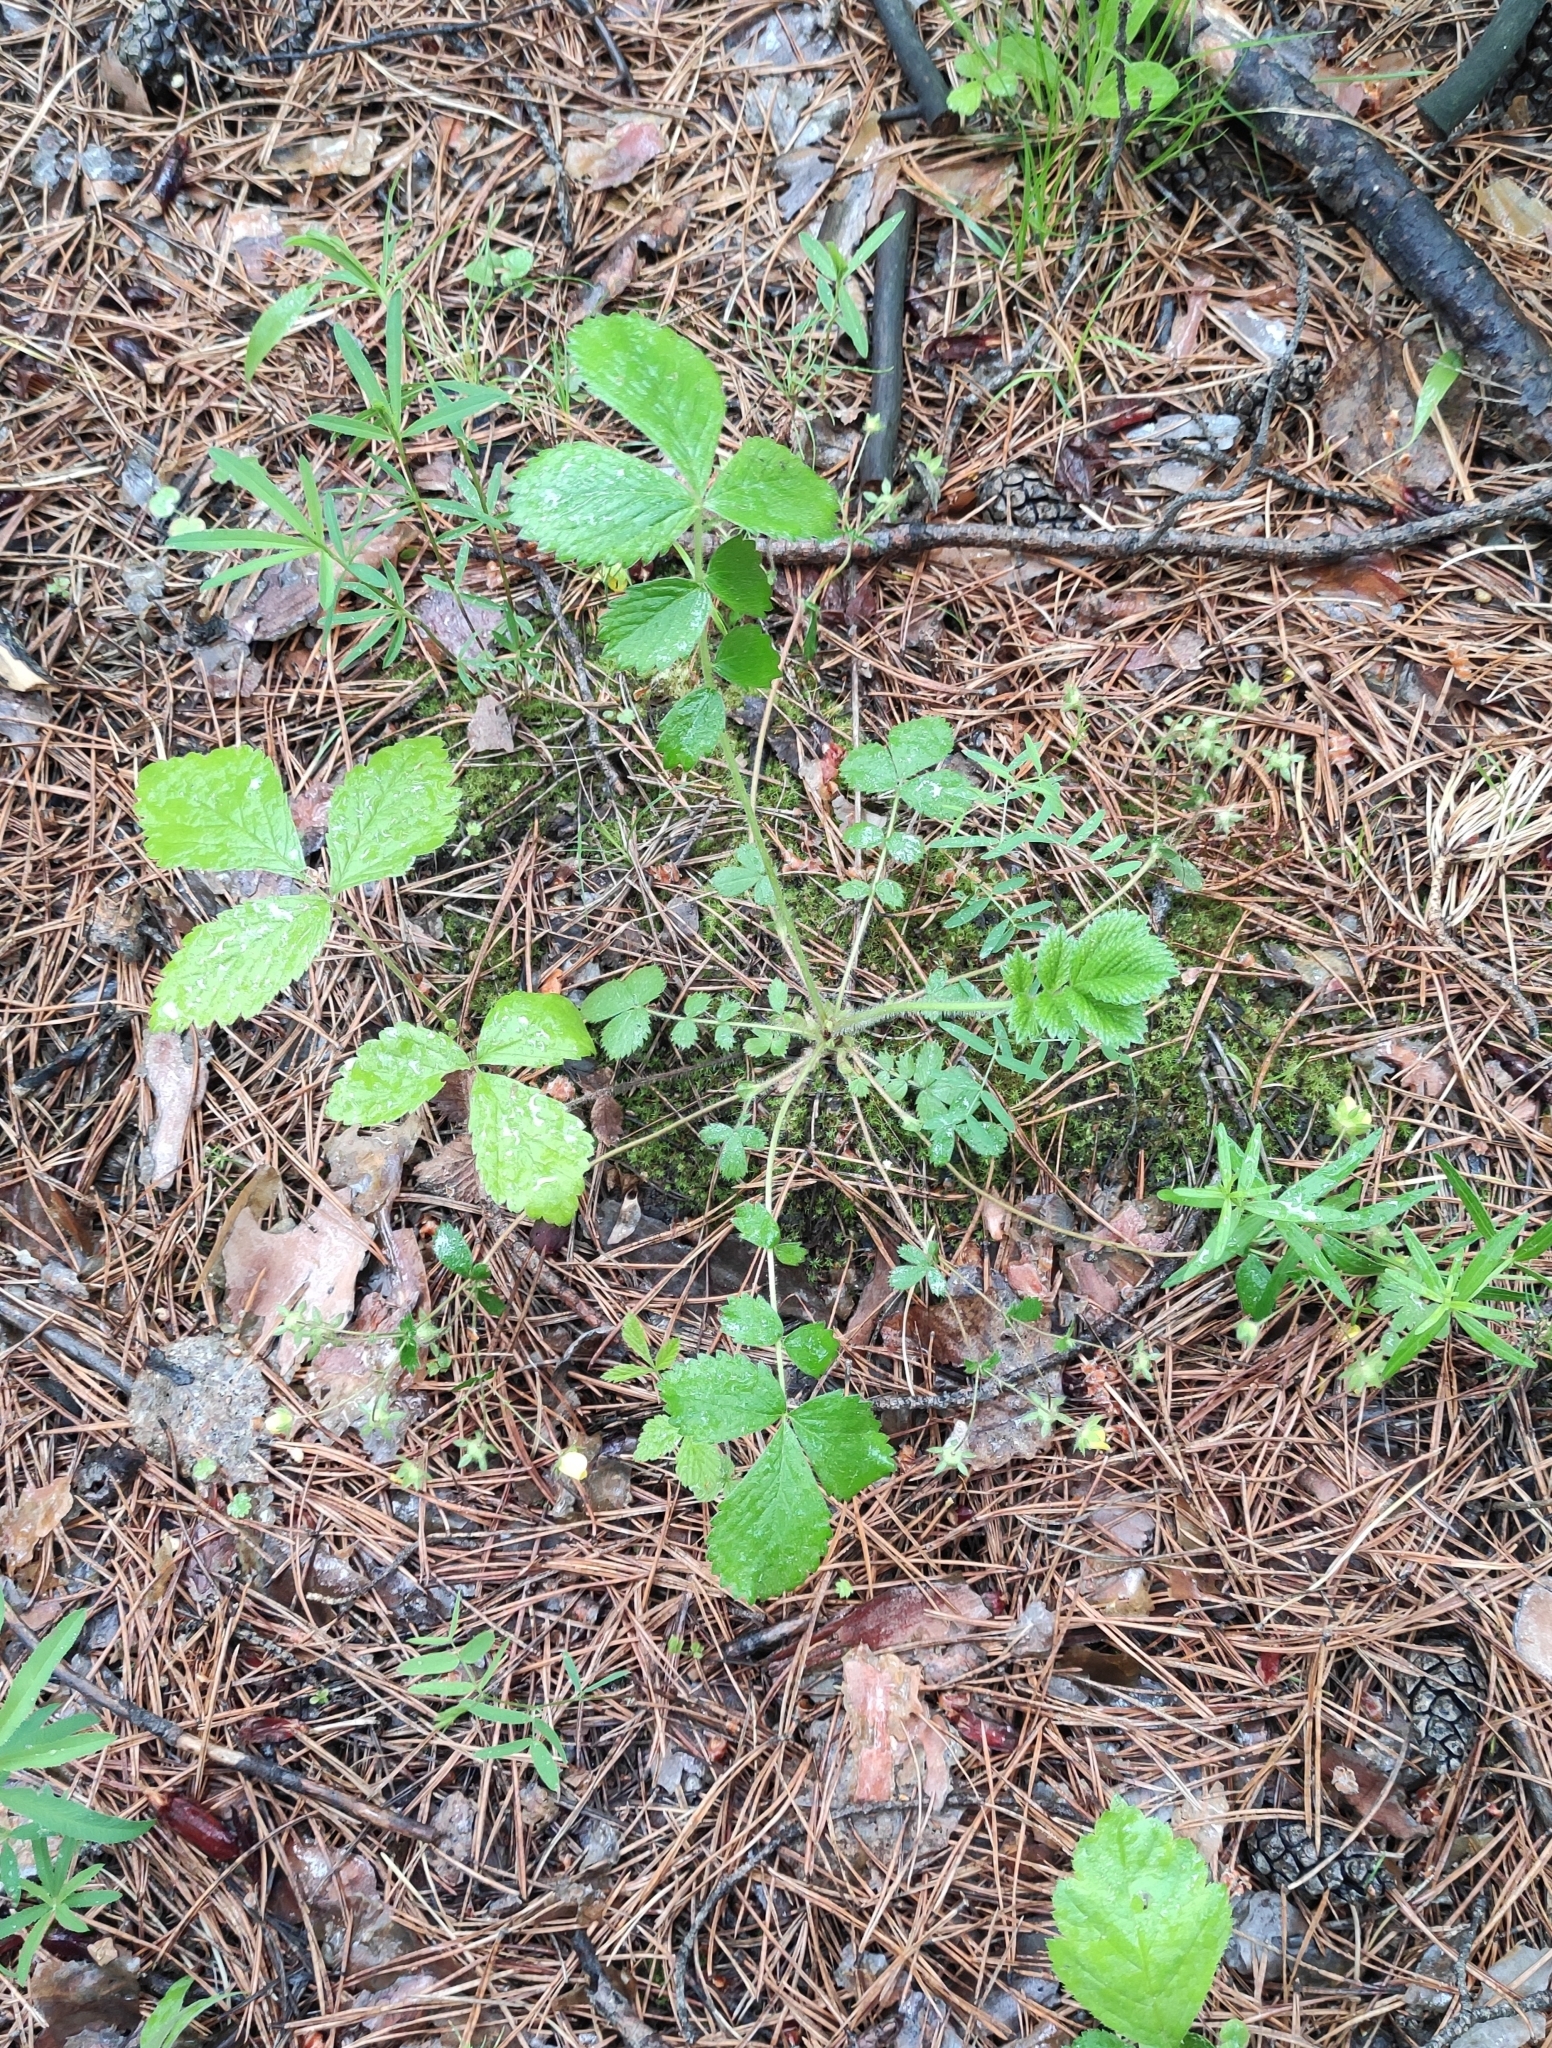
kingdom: Plantae
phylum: Tracheophyta
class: Magnoliopsida
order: Rosales
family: Rosaceae
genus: Potentilla
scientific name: Potentilla fragarioides
